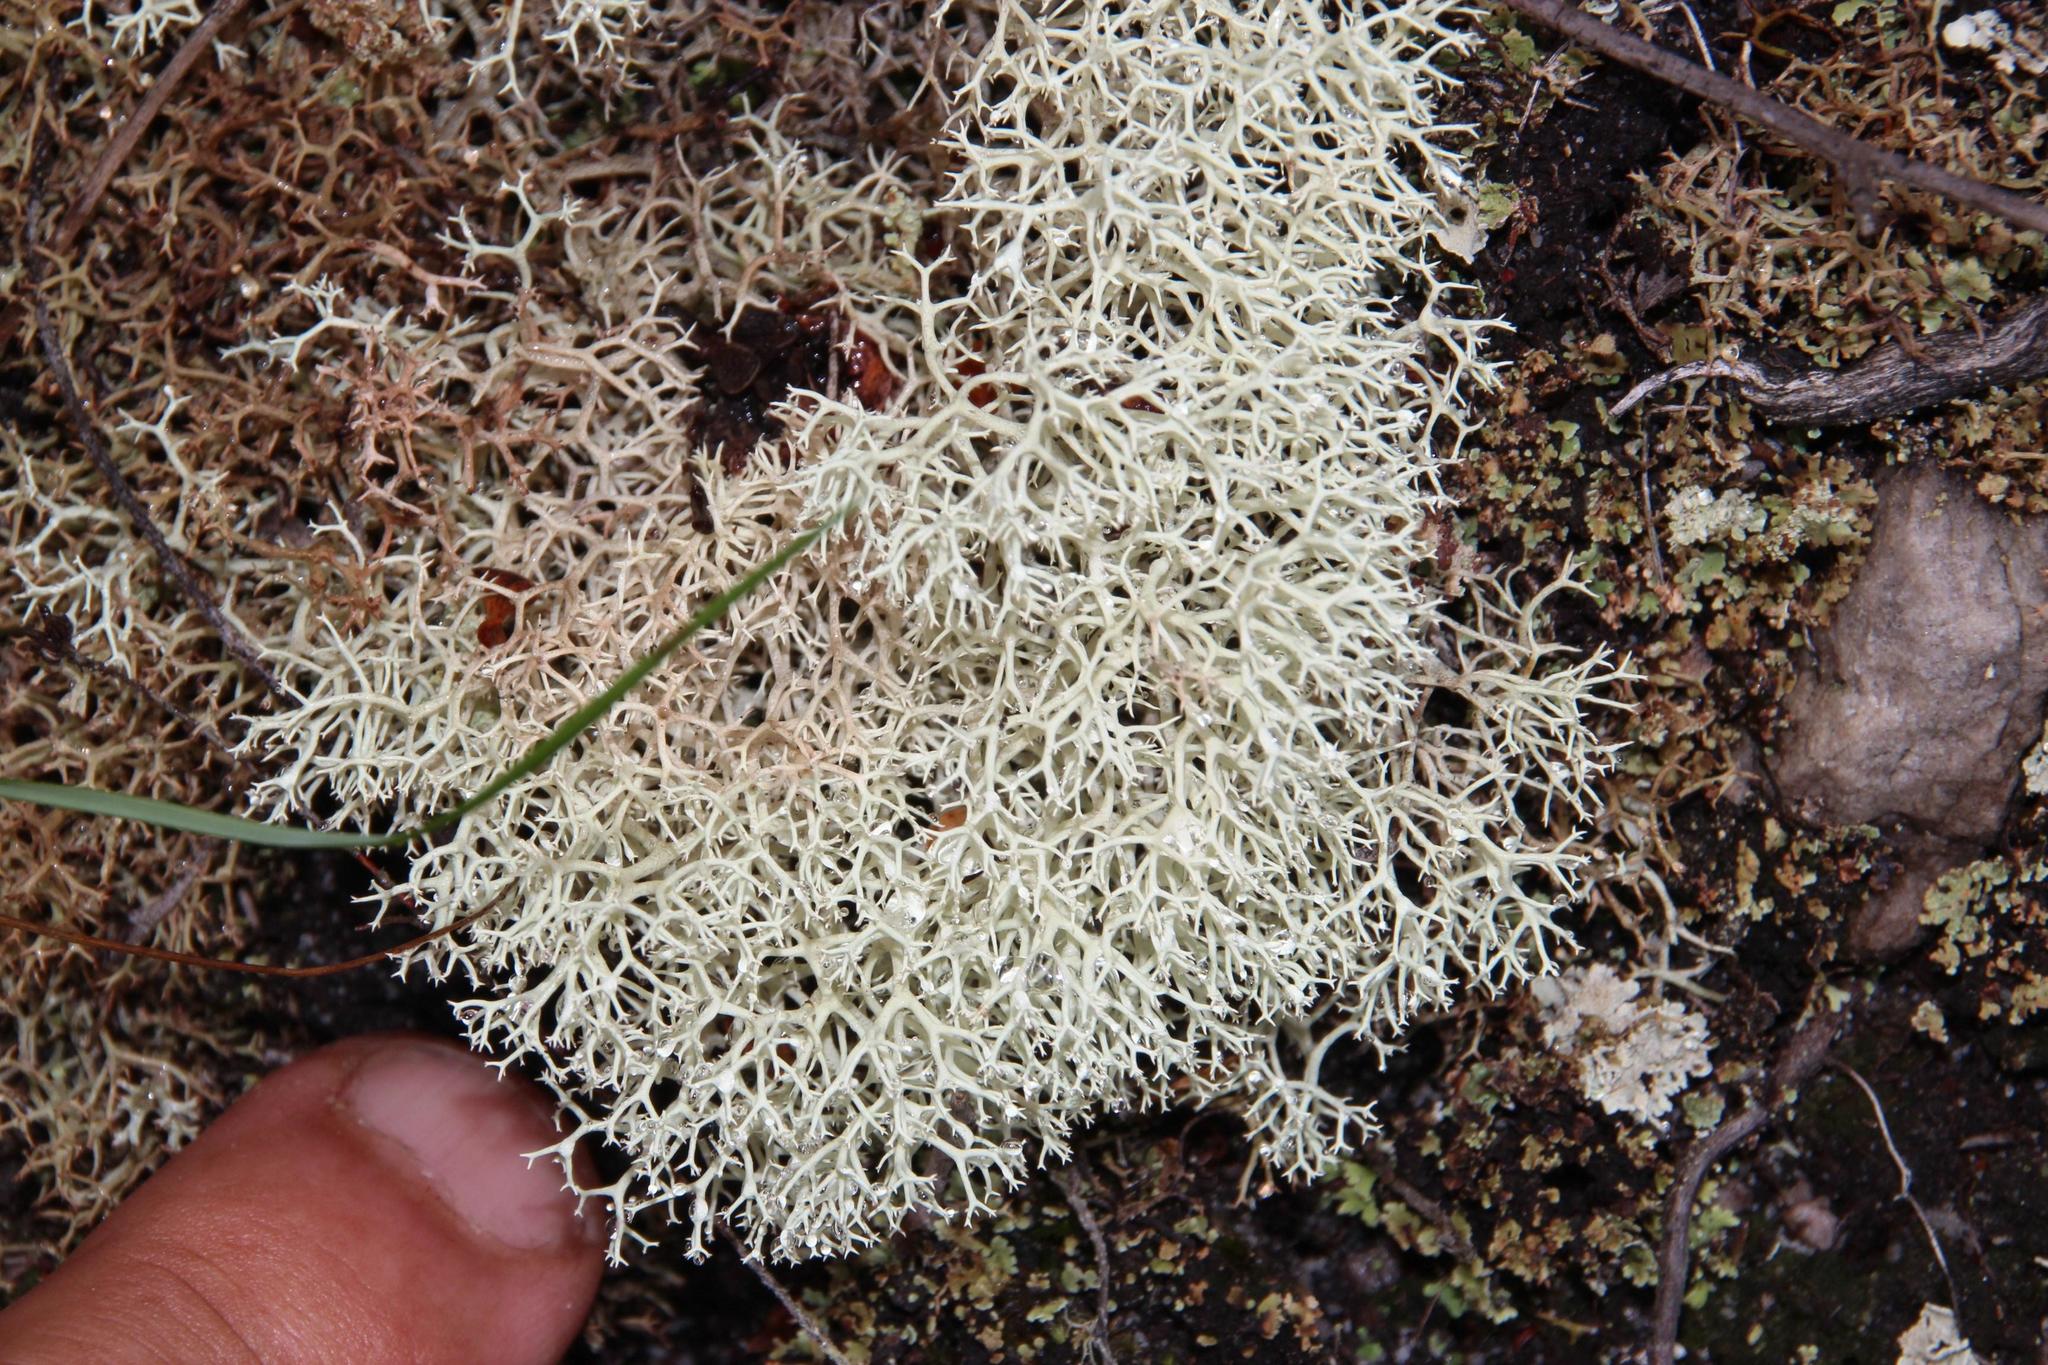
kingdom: Fungi
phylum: Ascomycota
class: Lecanoromycetes
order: Lecanorales
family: Cladoniaceae
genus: Cladonia
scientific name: Cladonia confusa
